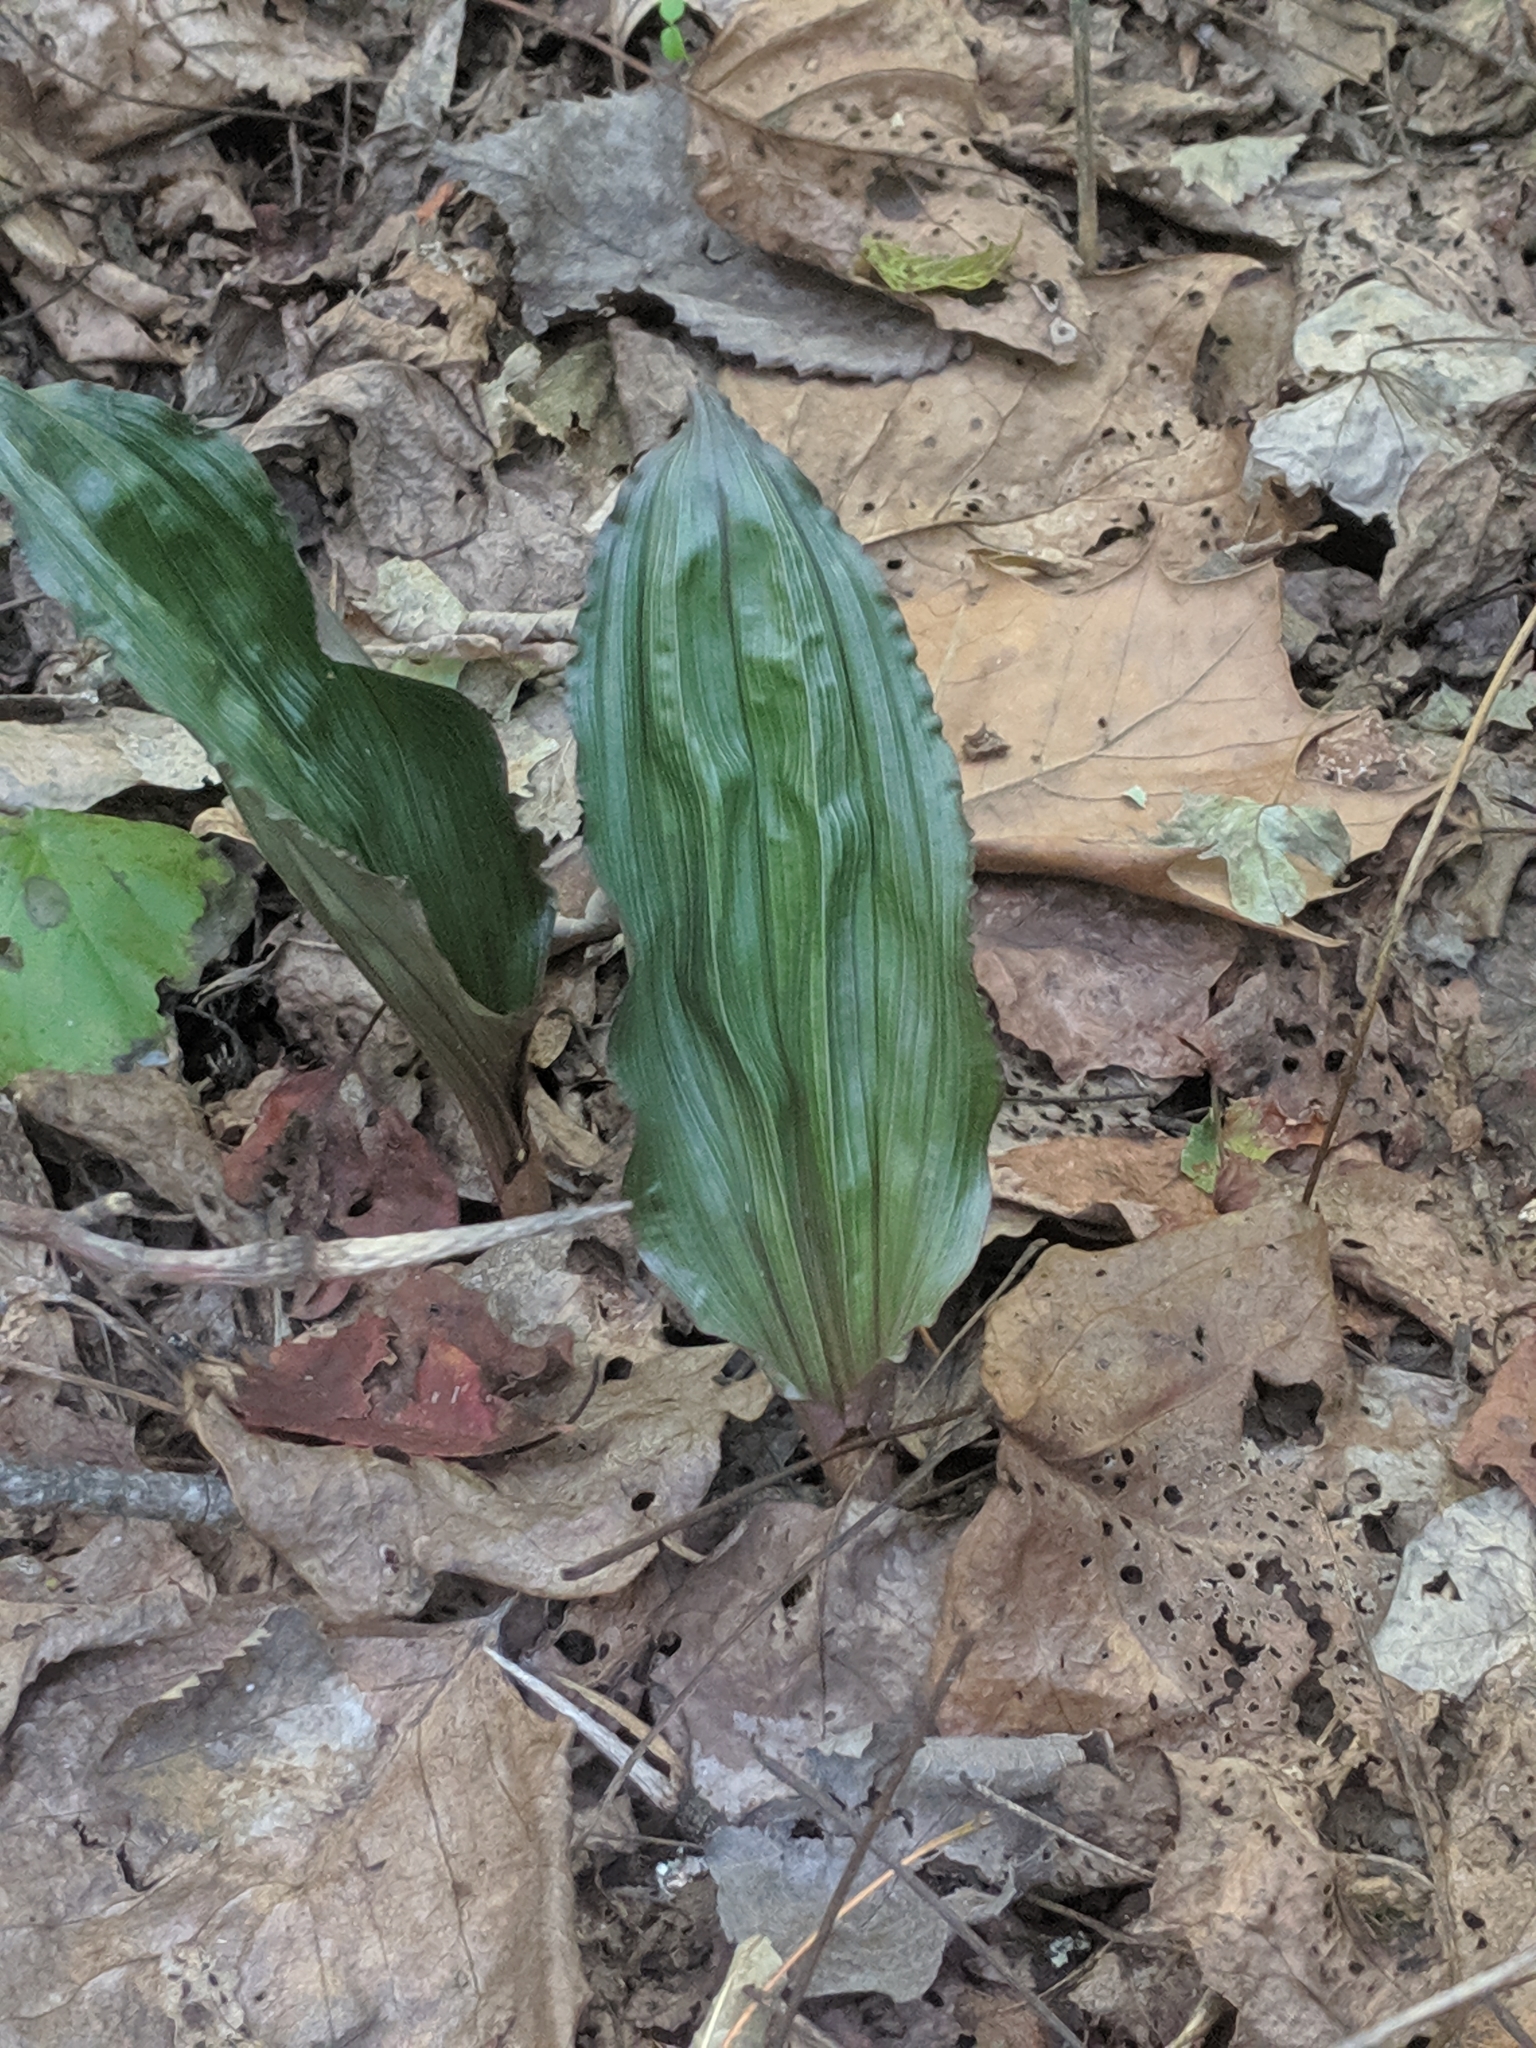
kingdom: Plantae
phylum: Tracheophyta
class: Liliopsida
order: Asparagales
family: Orchidaceae
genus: Aplectrum
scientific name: Aplectrum hyemale
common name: Adam-and-eve
